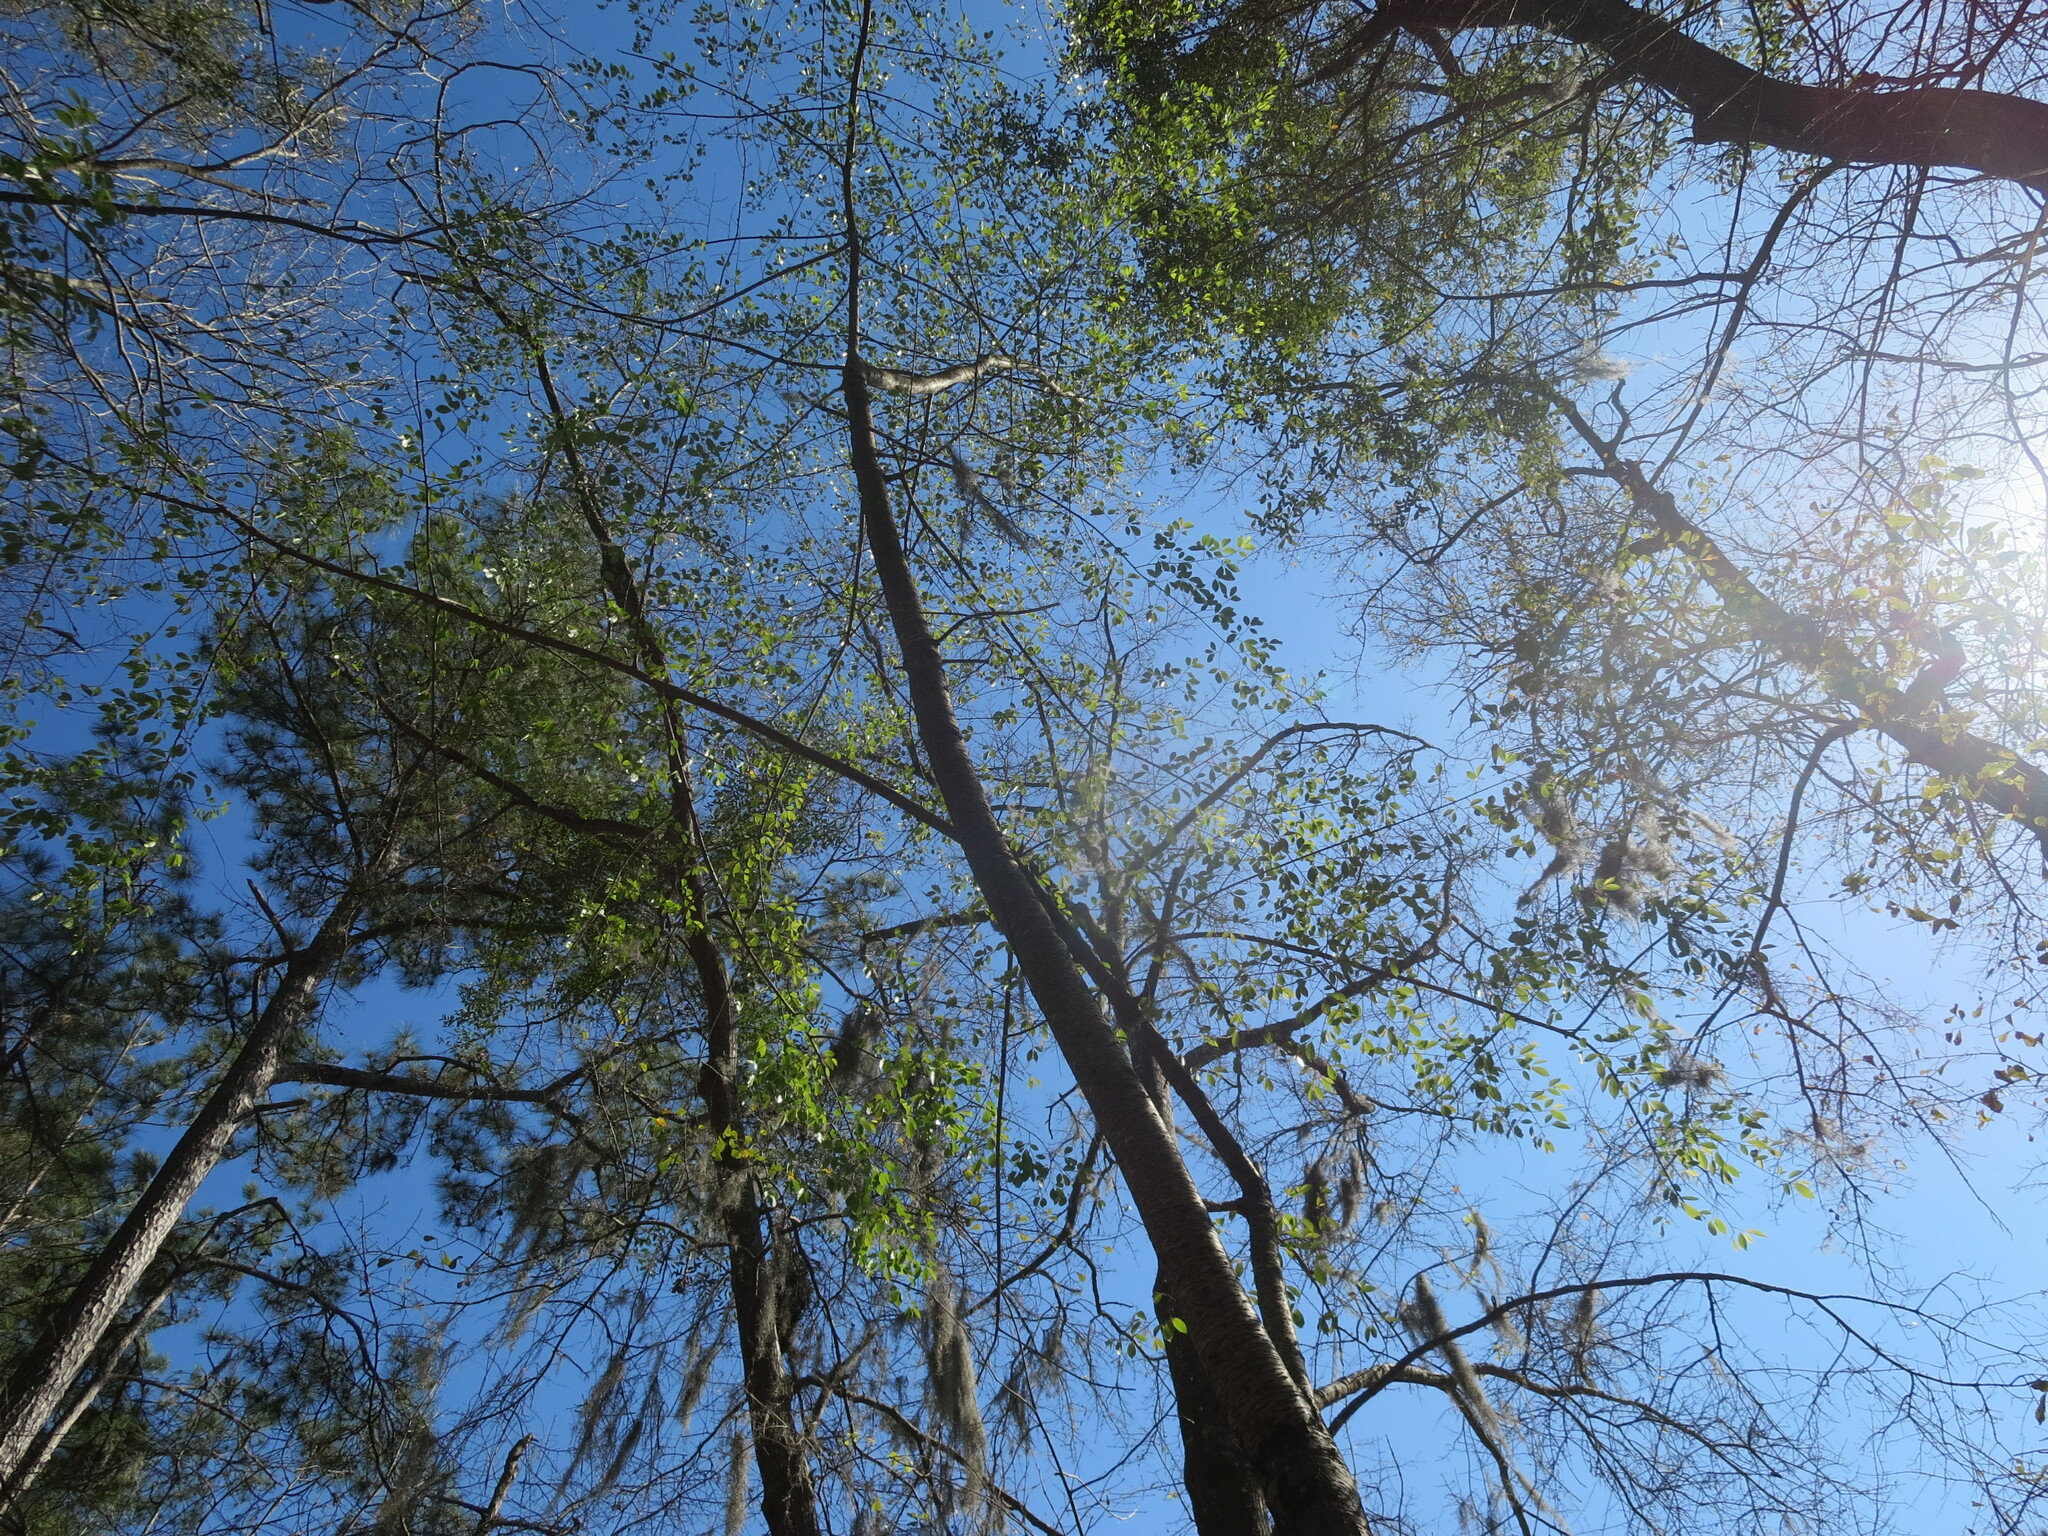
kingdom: Plantae
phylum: Tracheophyta
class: Magnoliopsida
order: Rosales
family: Rosaceae
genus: Prunus
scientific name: Prunus serotina
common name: Black cherry
